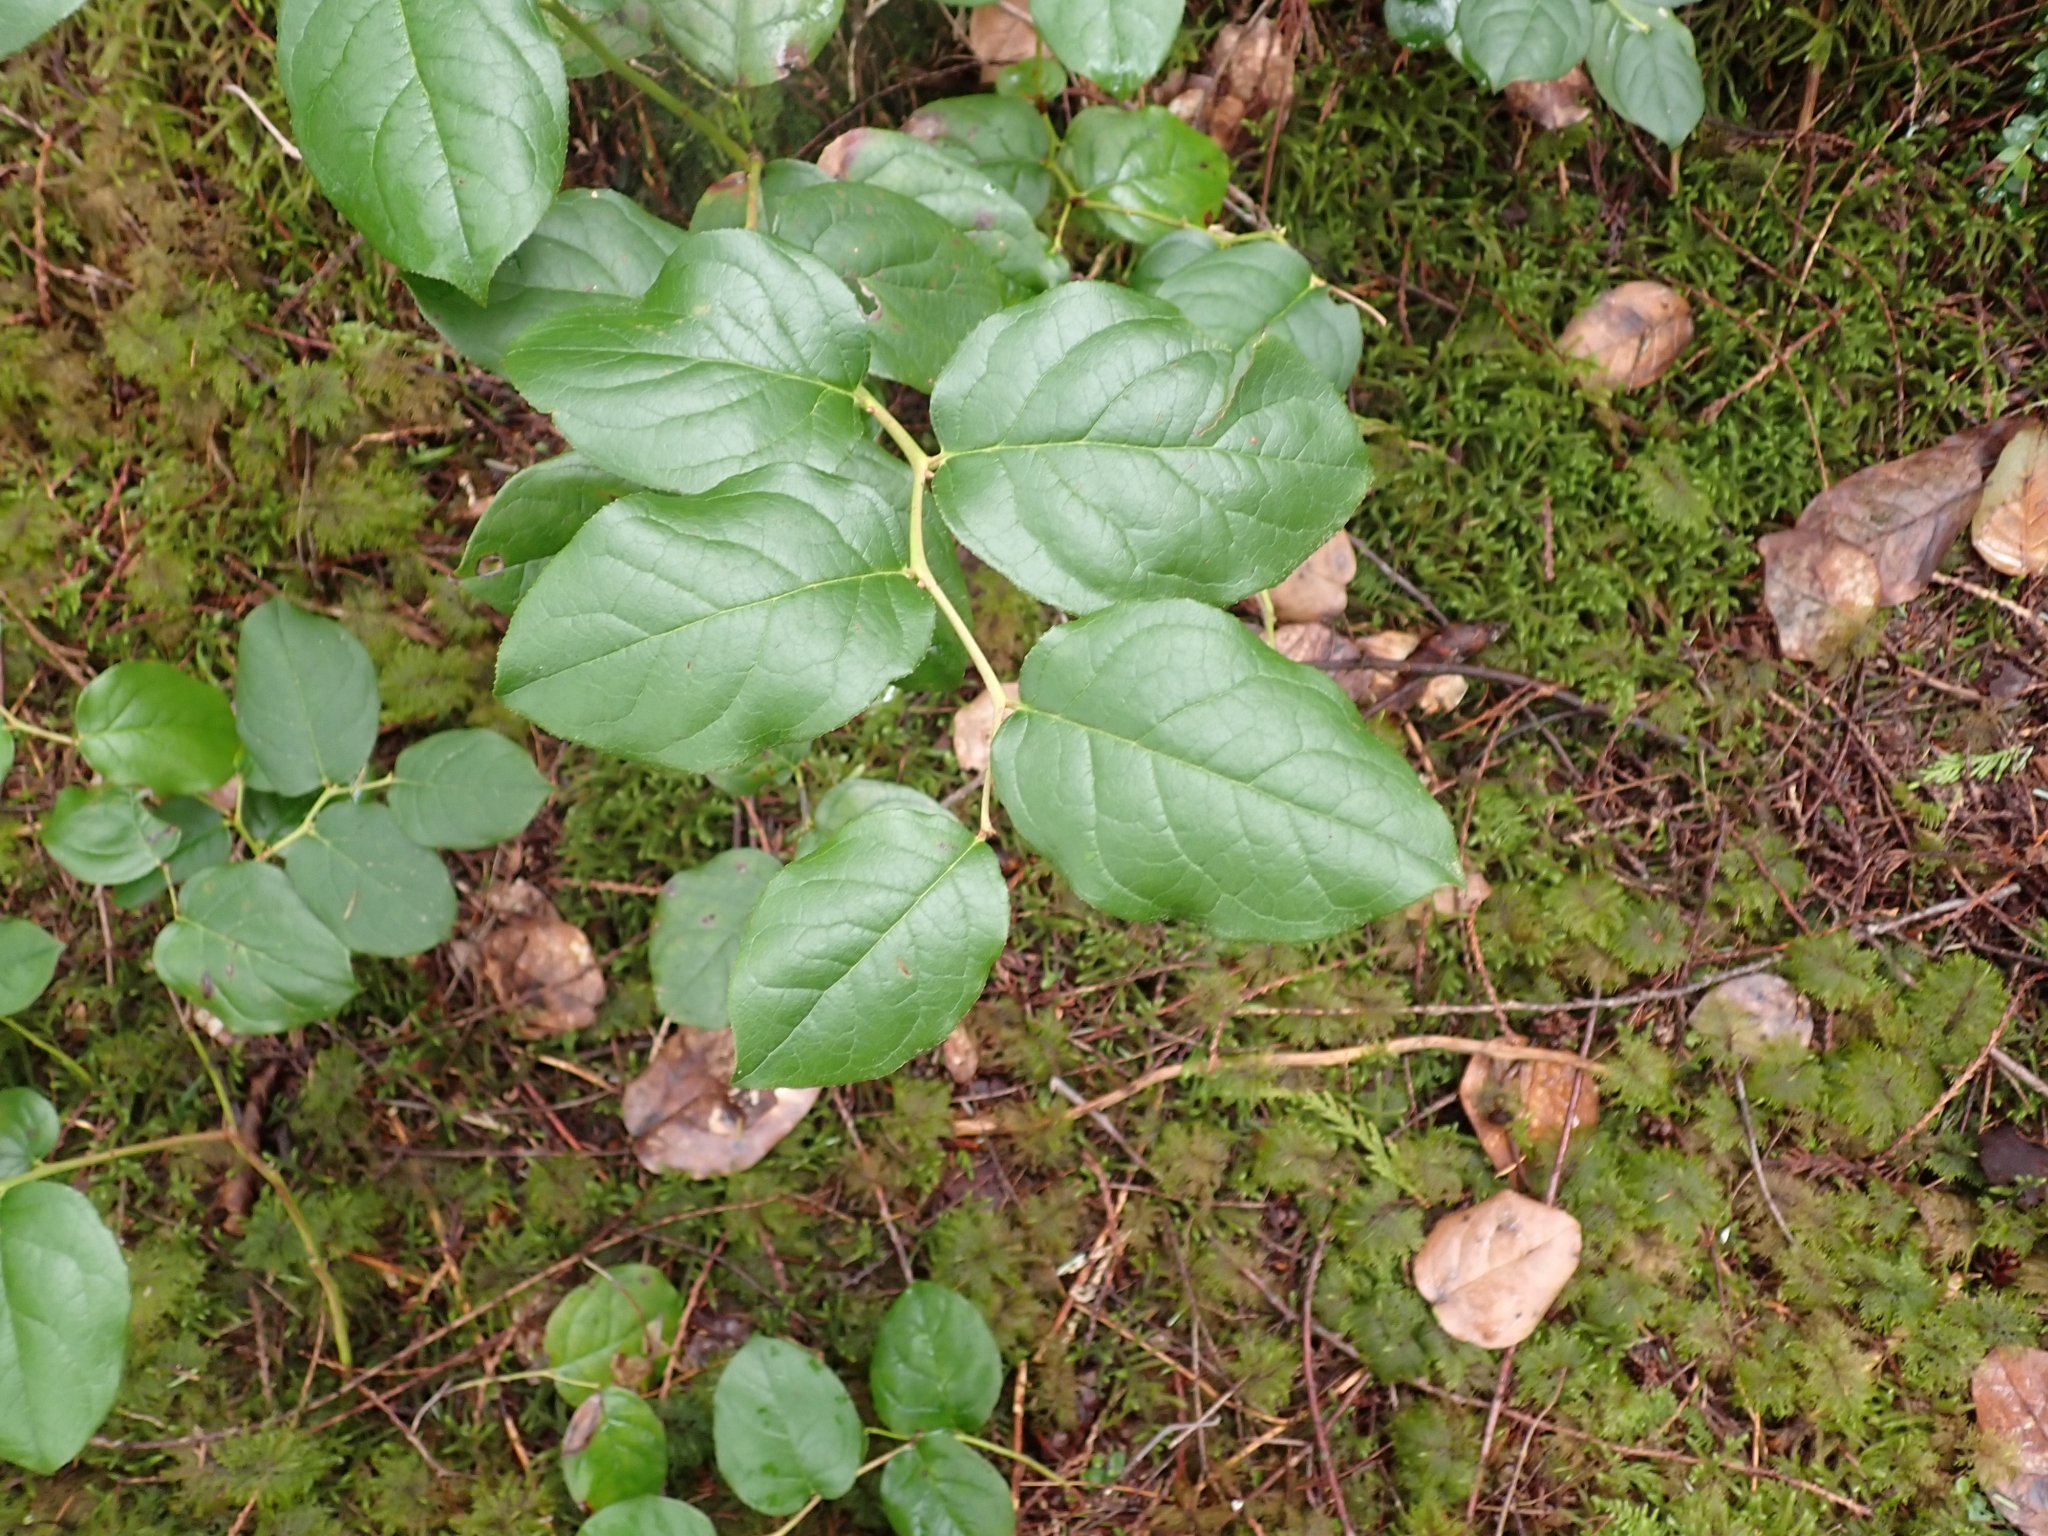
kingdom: Plantae
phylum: Tracheophyta
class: Magnoliopsida
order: Ericales
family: Ericaceae
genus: Gaultheria
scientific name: Gaultheria shallon
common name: Shallon
